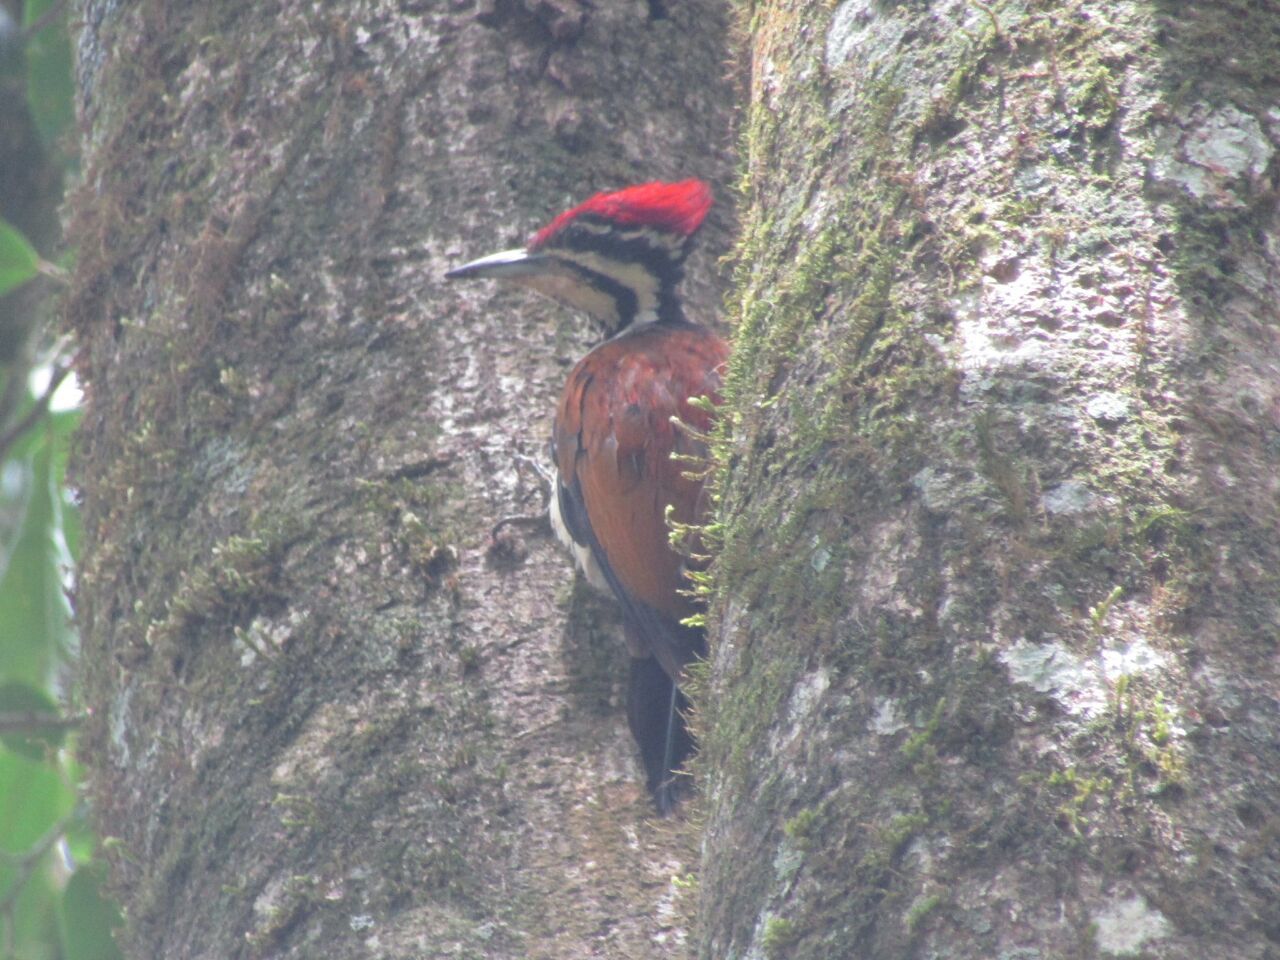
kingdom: Animalia
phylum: Chordata
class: Aves
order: Piciformes
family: Picidae
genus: Dinopium
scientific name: Dinopium javanense
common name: Common flameback
